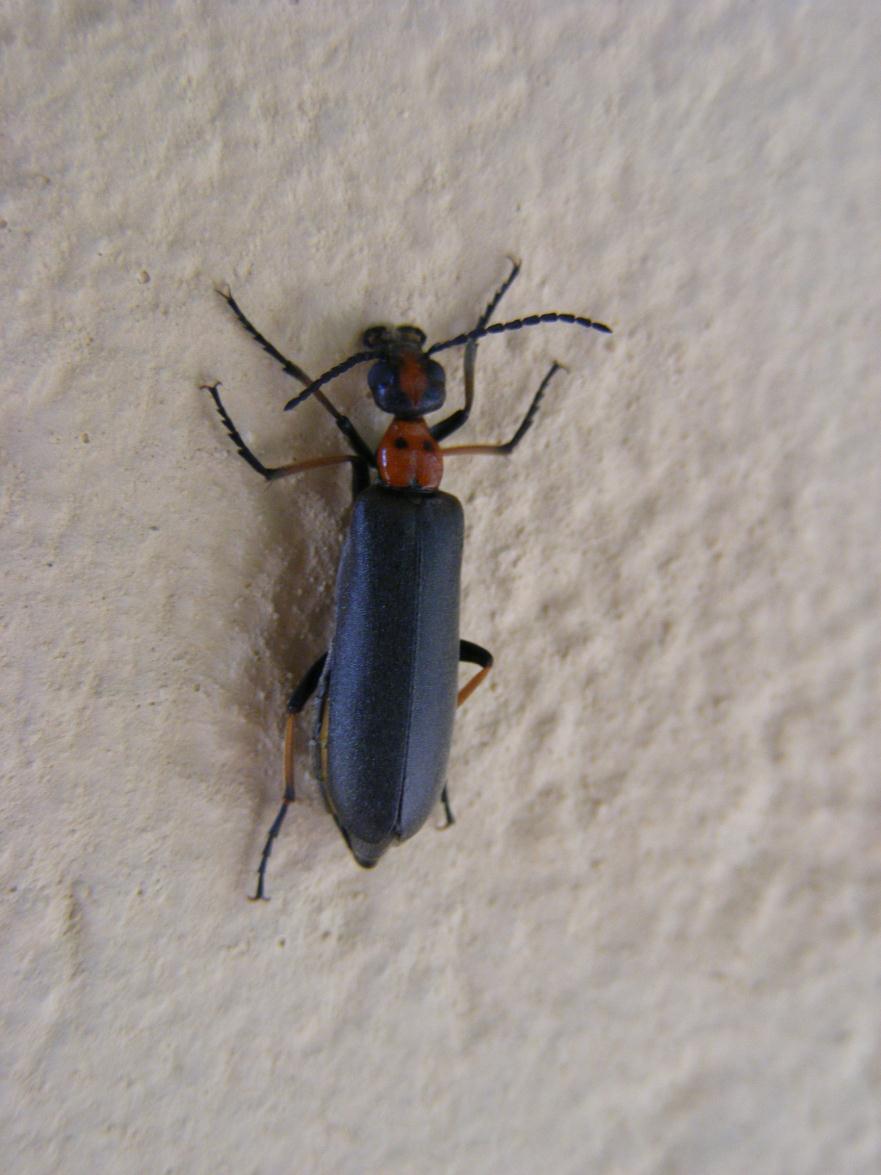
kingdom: Animalia
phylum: Arthropoda
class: Insecta
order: Coleoptera
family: Meloidae
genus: Lydomorphus
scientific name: Lydomorphus
